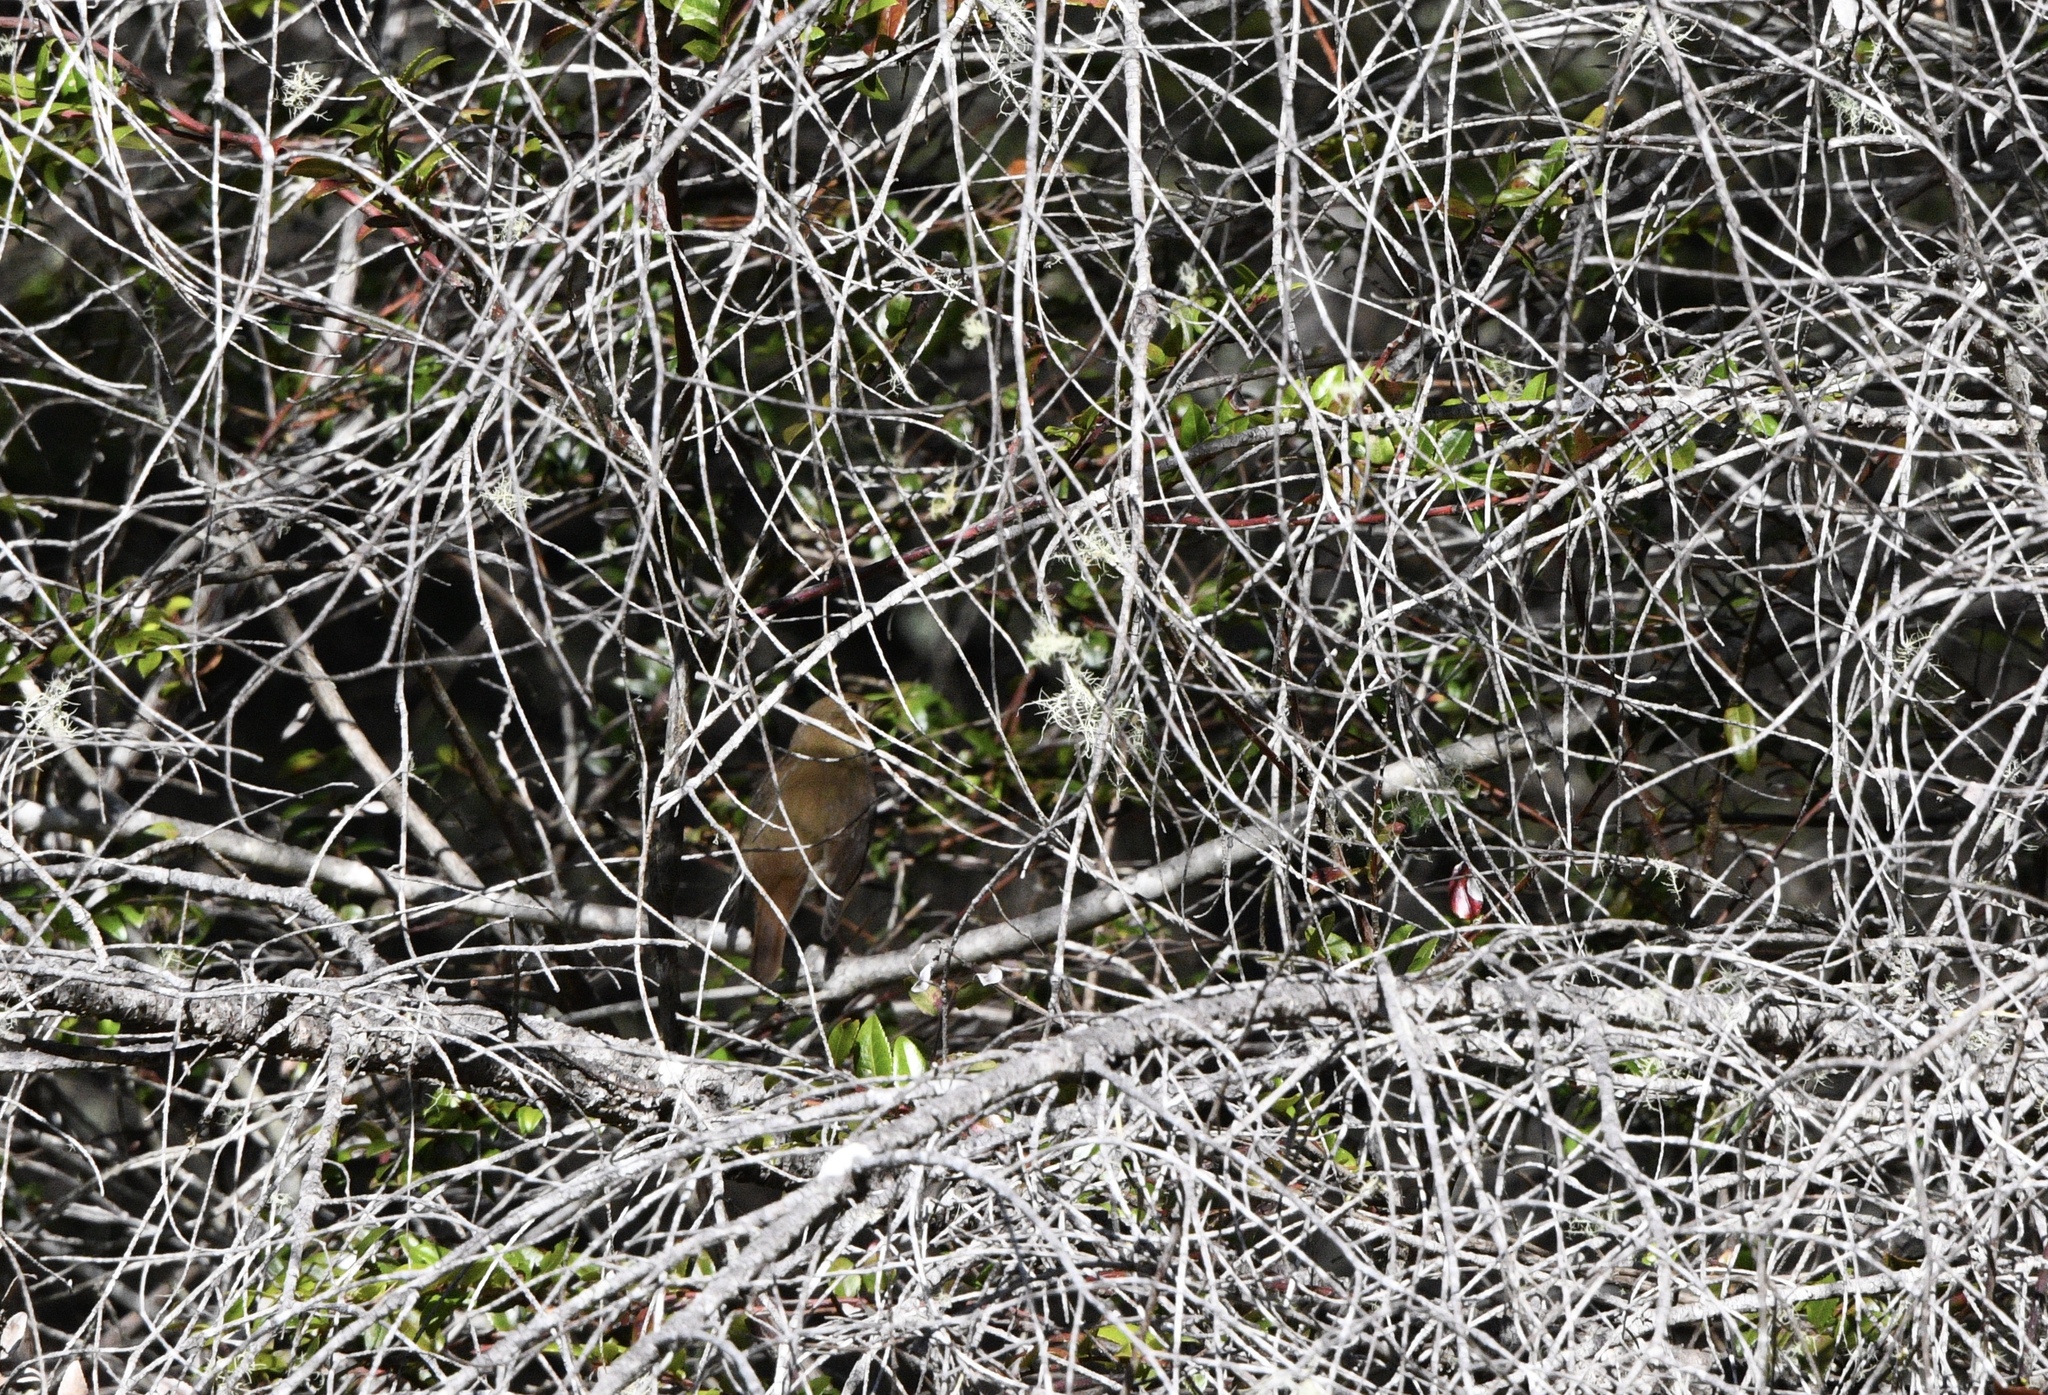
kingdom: Animalia
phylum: Chordata
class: Aves
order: Passeriformes
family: Turdidae
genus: Catharus
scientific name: Catharus guttatus
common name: Hermit thrush
